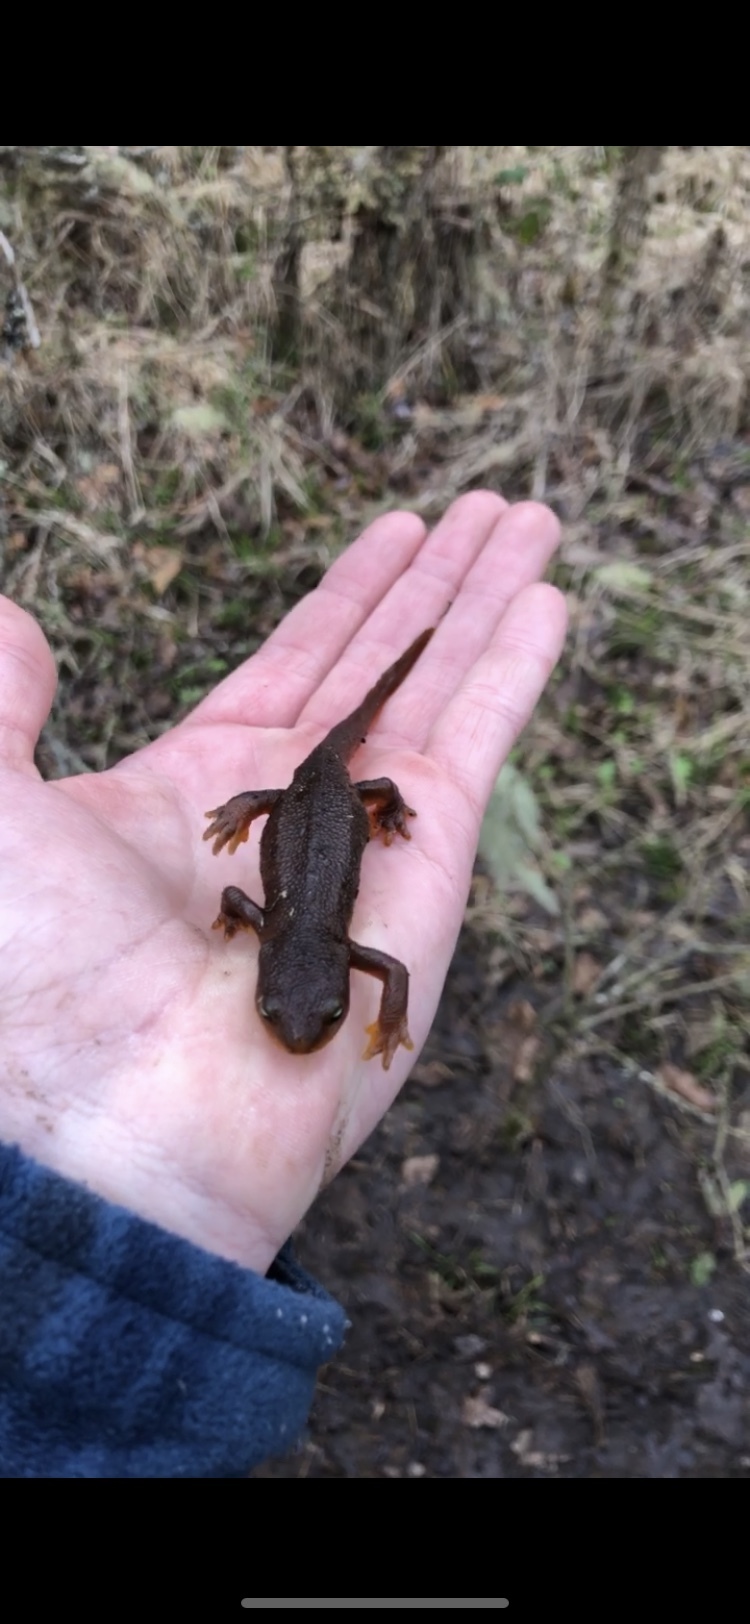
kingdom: Animalia
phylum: Chordata
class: Amphibia
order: Caudata
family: Salamandridae
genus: Taricha
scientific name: Taricha granulosa
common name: Roughskin newt
